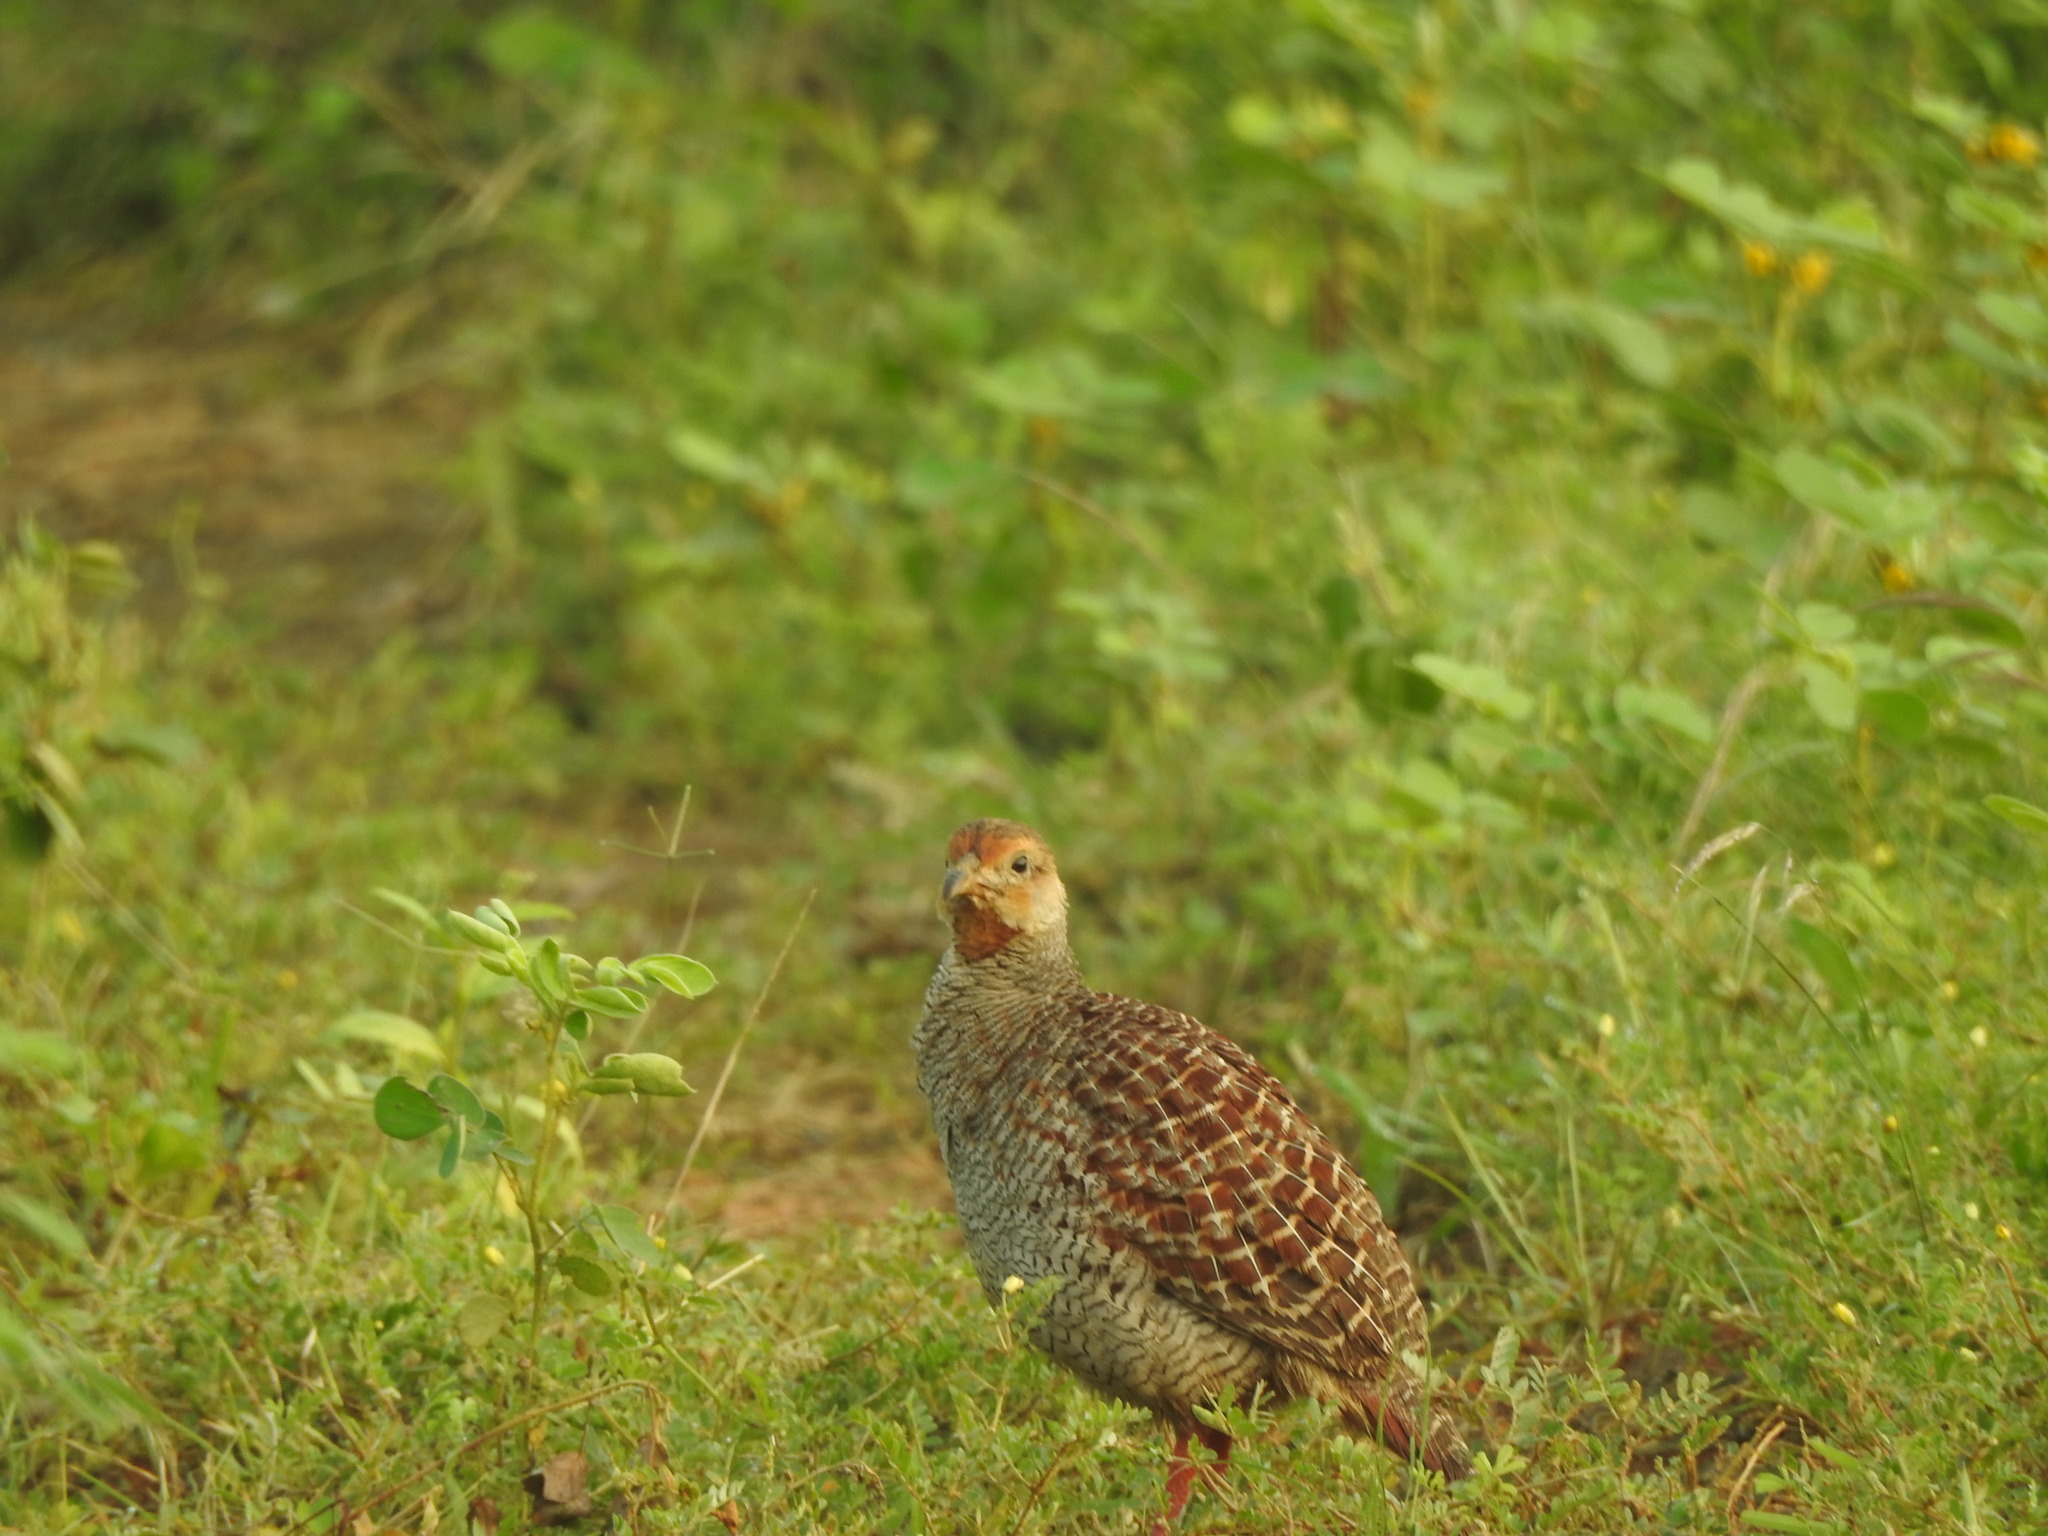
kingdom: Animalia
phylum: Chordata
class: Aves
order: Galliformes
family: Phasianidae
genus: Ortygornis
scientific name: Ortygornis pondicerianus
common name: Grey francolin
